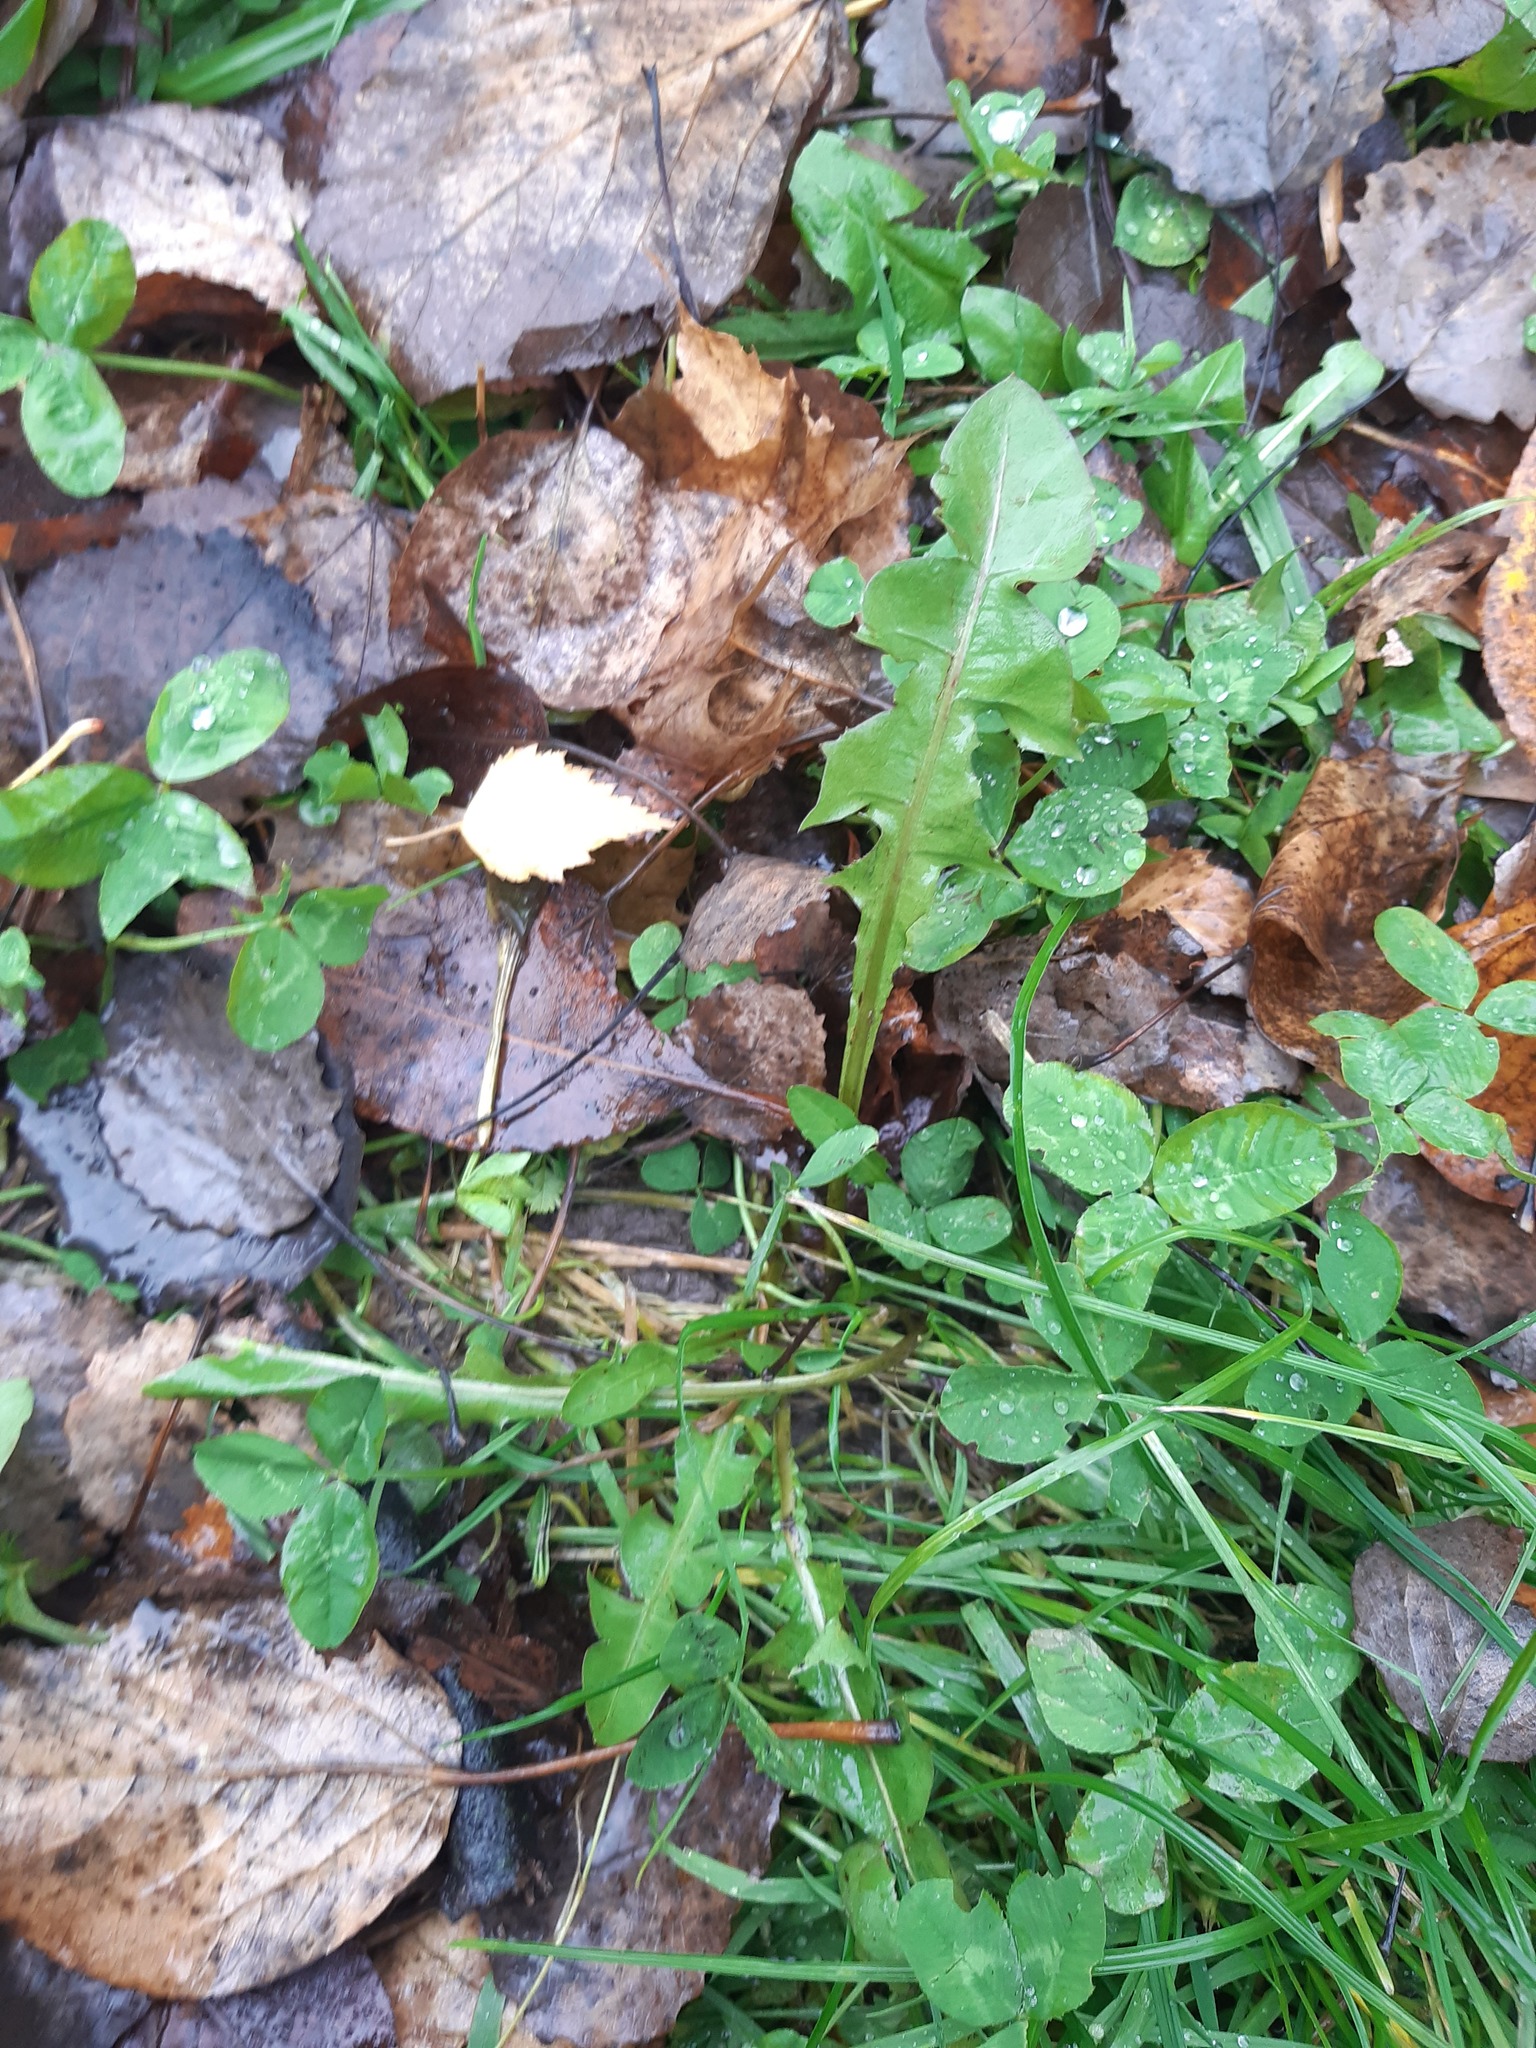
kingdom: Plantae
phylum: Tracheophyta
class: Magnoliopsida
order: Asterales
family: Asteraceae
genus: Taraxacum
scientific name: Taraxacum officinale
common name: Common dandelion
